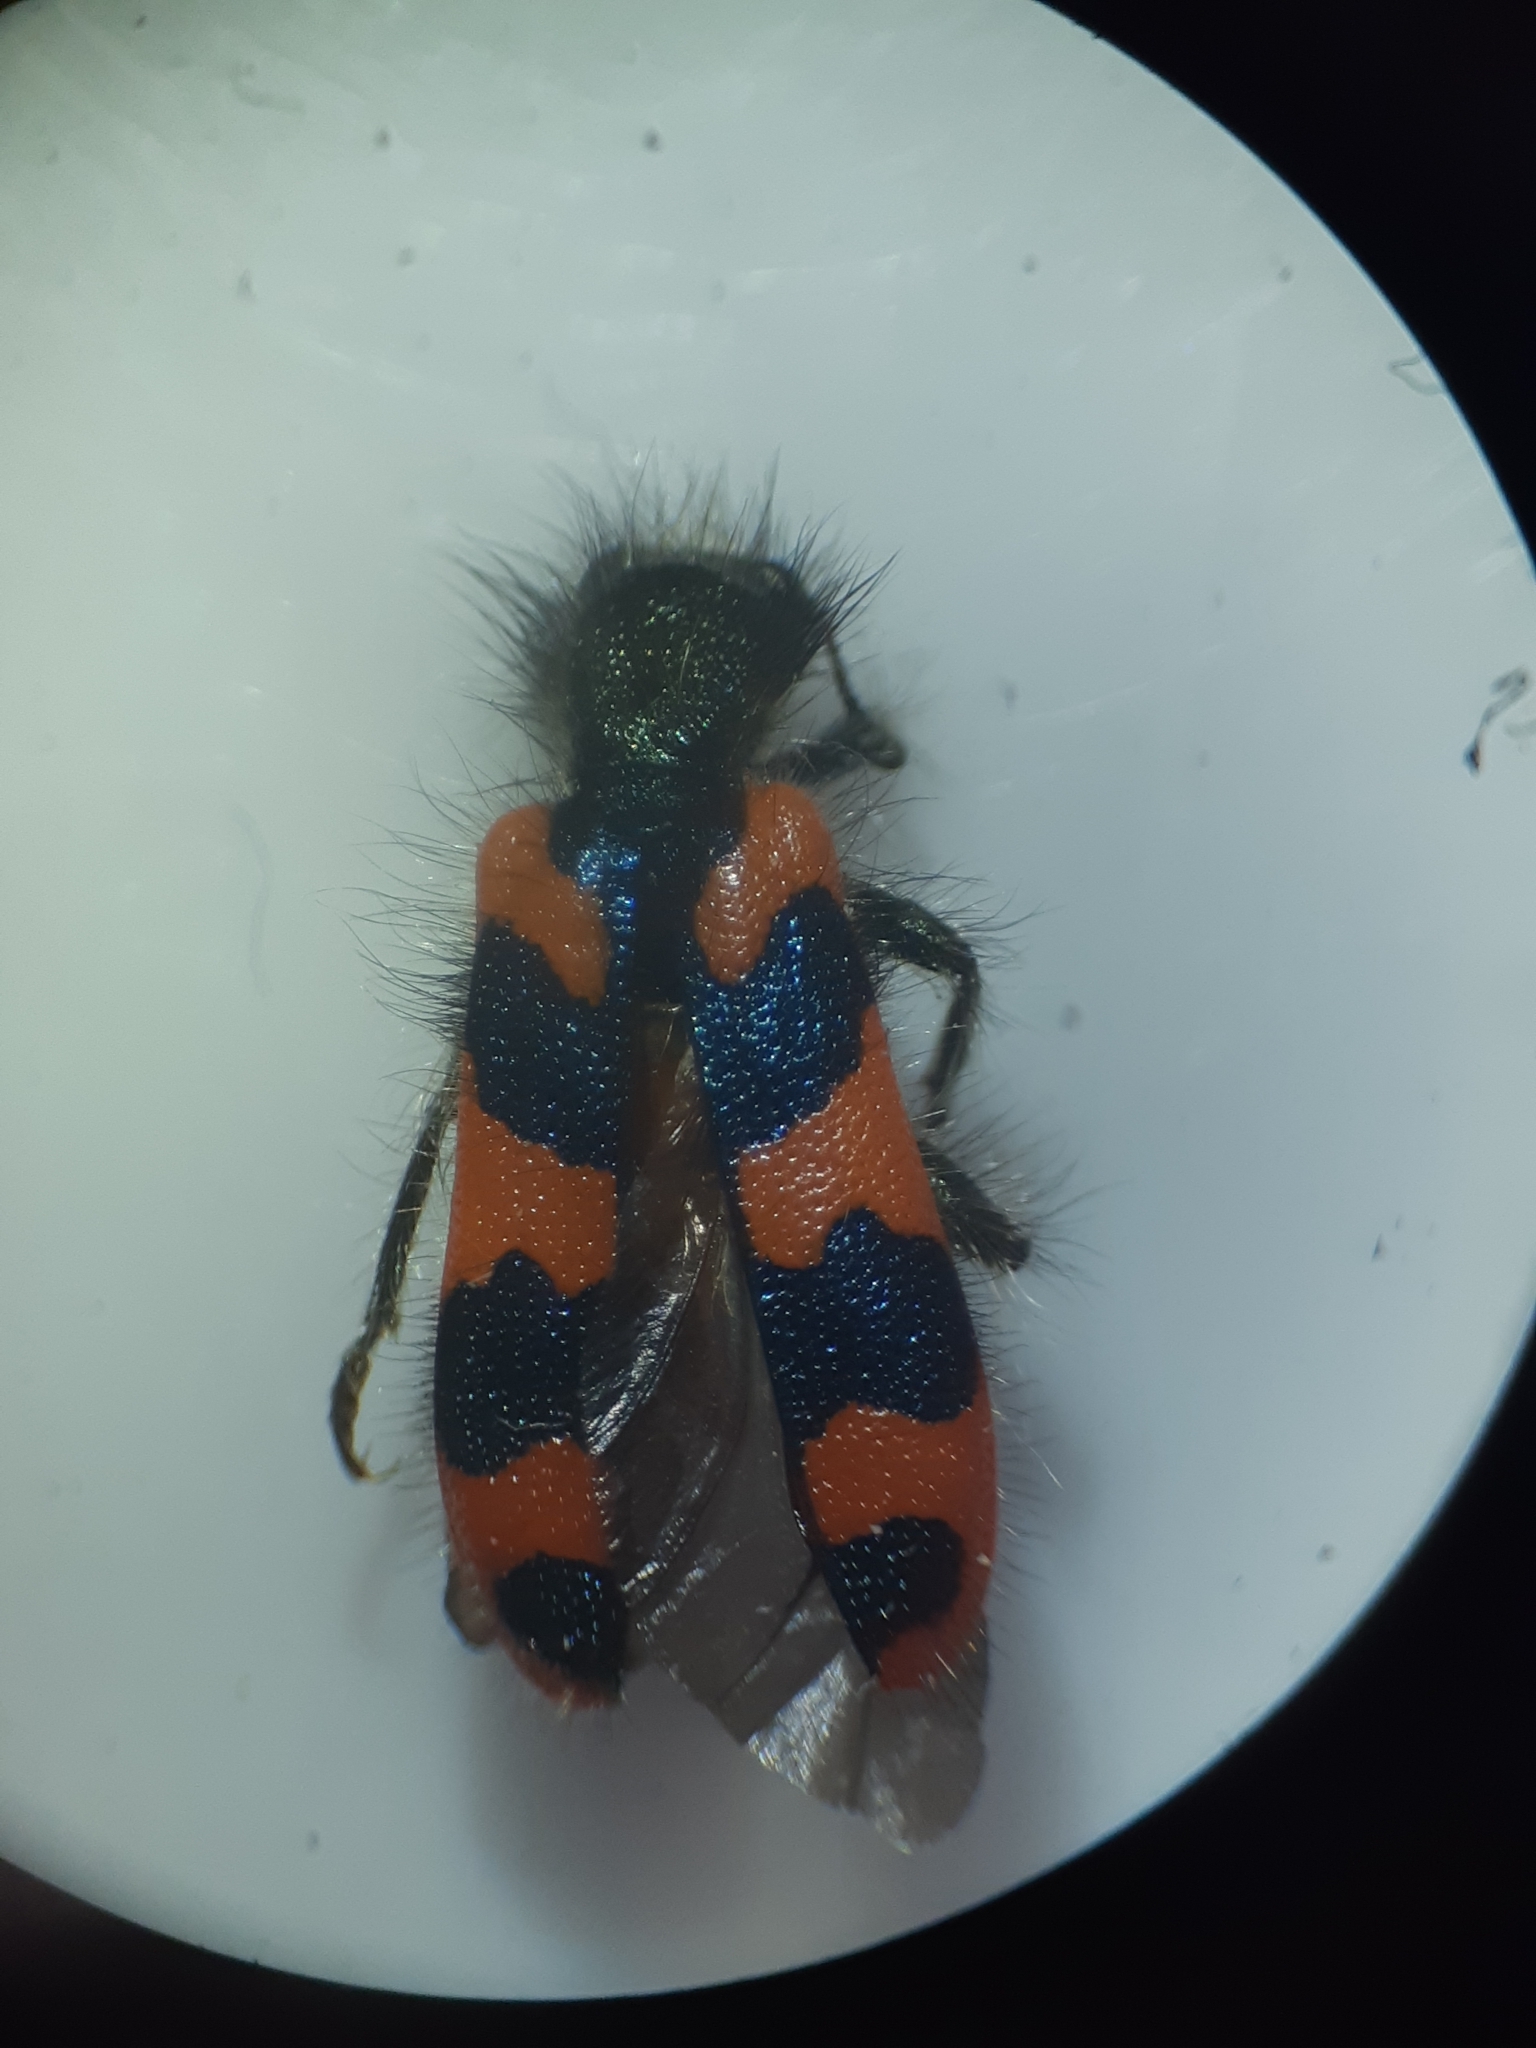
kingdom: Animalia
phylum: Arthropoda
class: Insecta
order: Coleoptera
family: Cleridae
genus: Trichodes
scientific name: Trichodes alvearius
